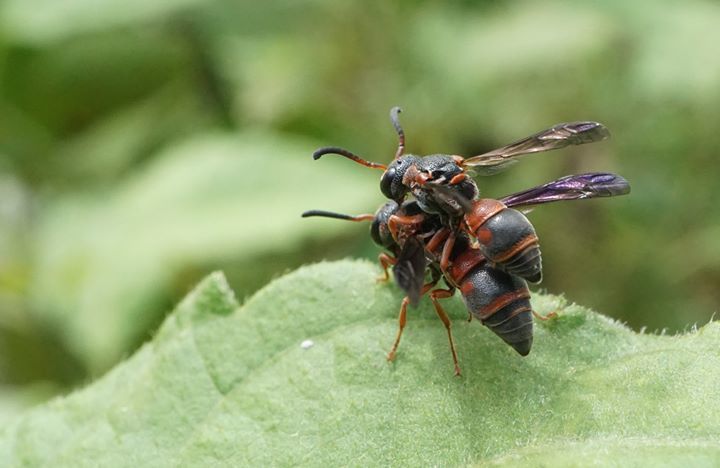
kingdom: Animalia
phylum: Arthropoda
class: Insecta
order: Hymenoptera
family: Eumenidae
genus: Rhynchalastor
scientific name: Rhynchalastor fundatiformis
